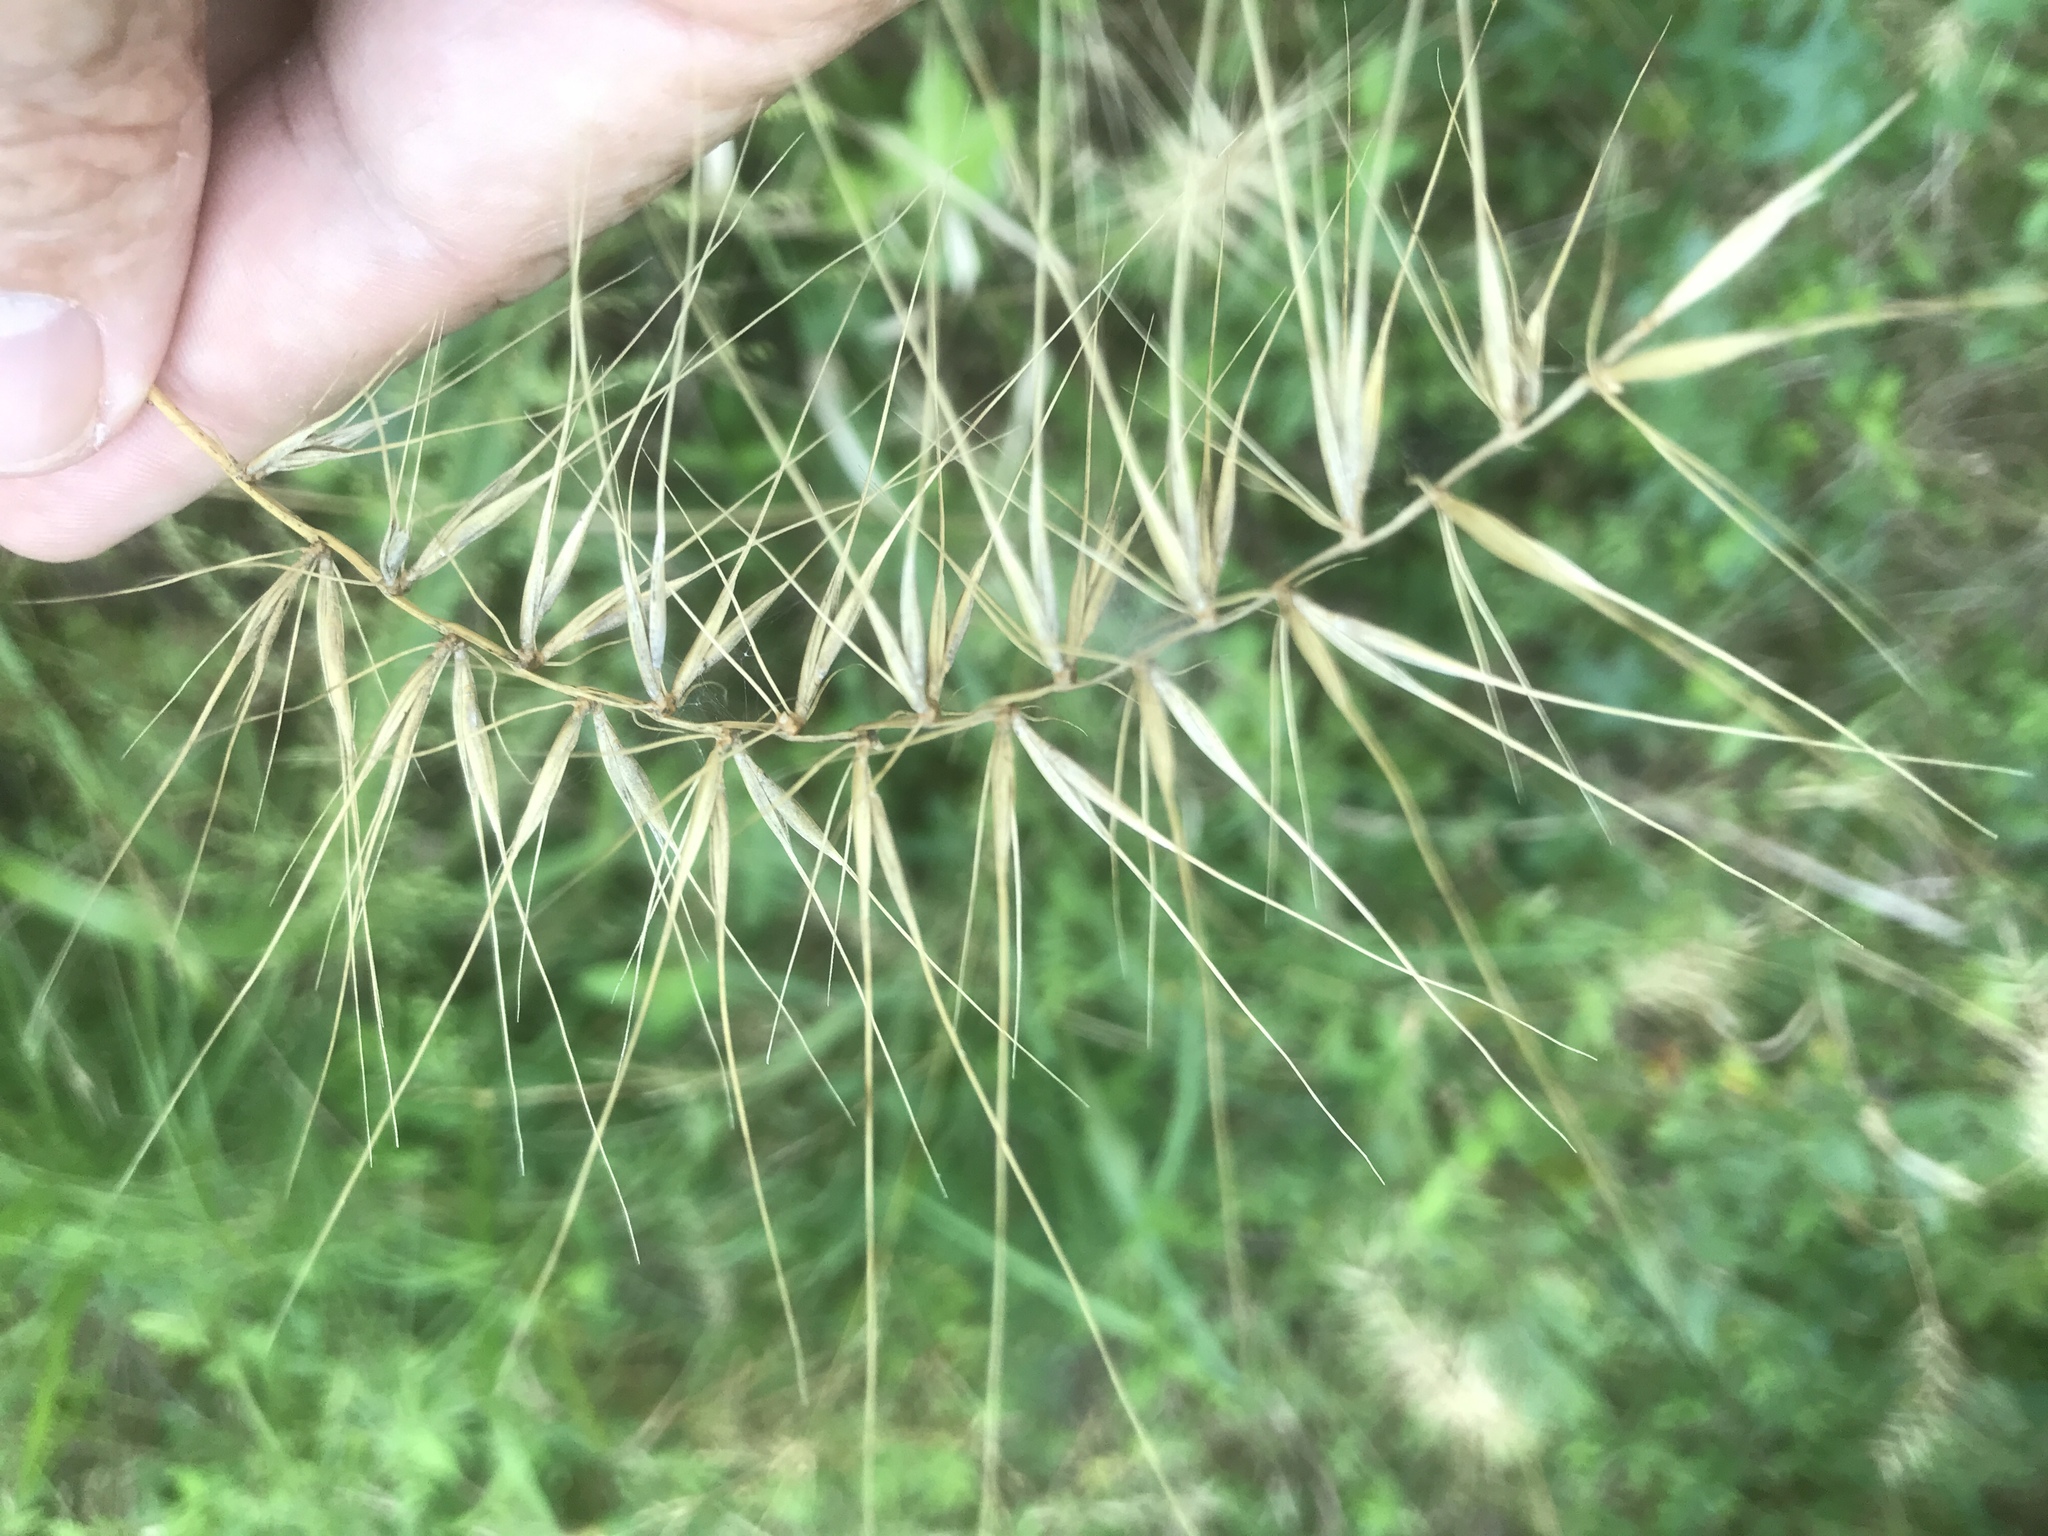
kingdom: Plantae
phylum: Tracheophyta
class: Liliopsida
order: Poales
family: Poaceae
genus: Elymus
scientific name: Elymus hystrix
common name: Bottlebrush grass
